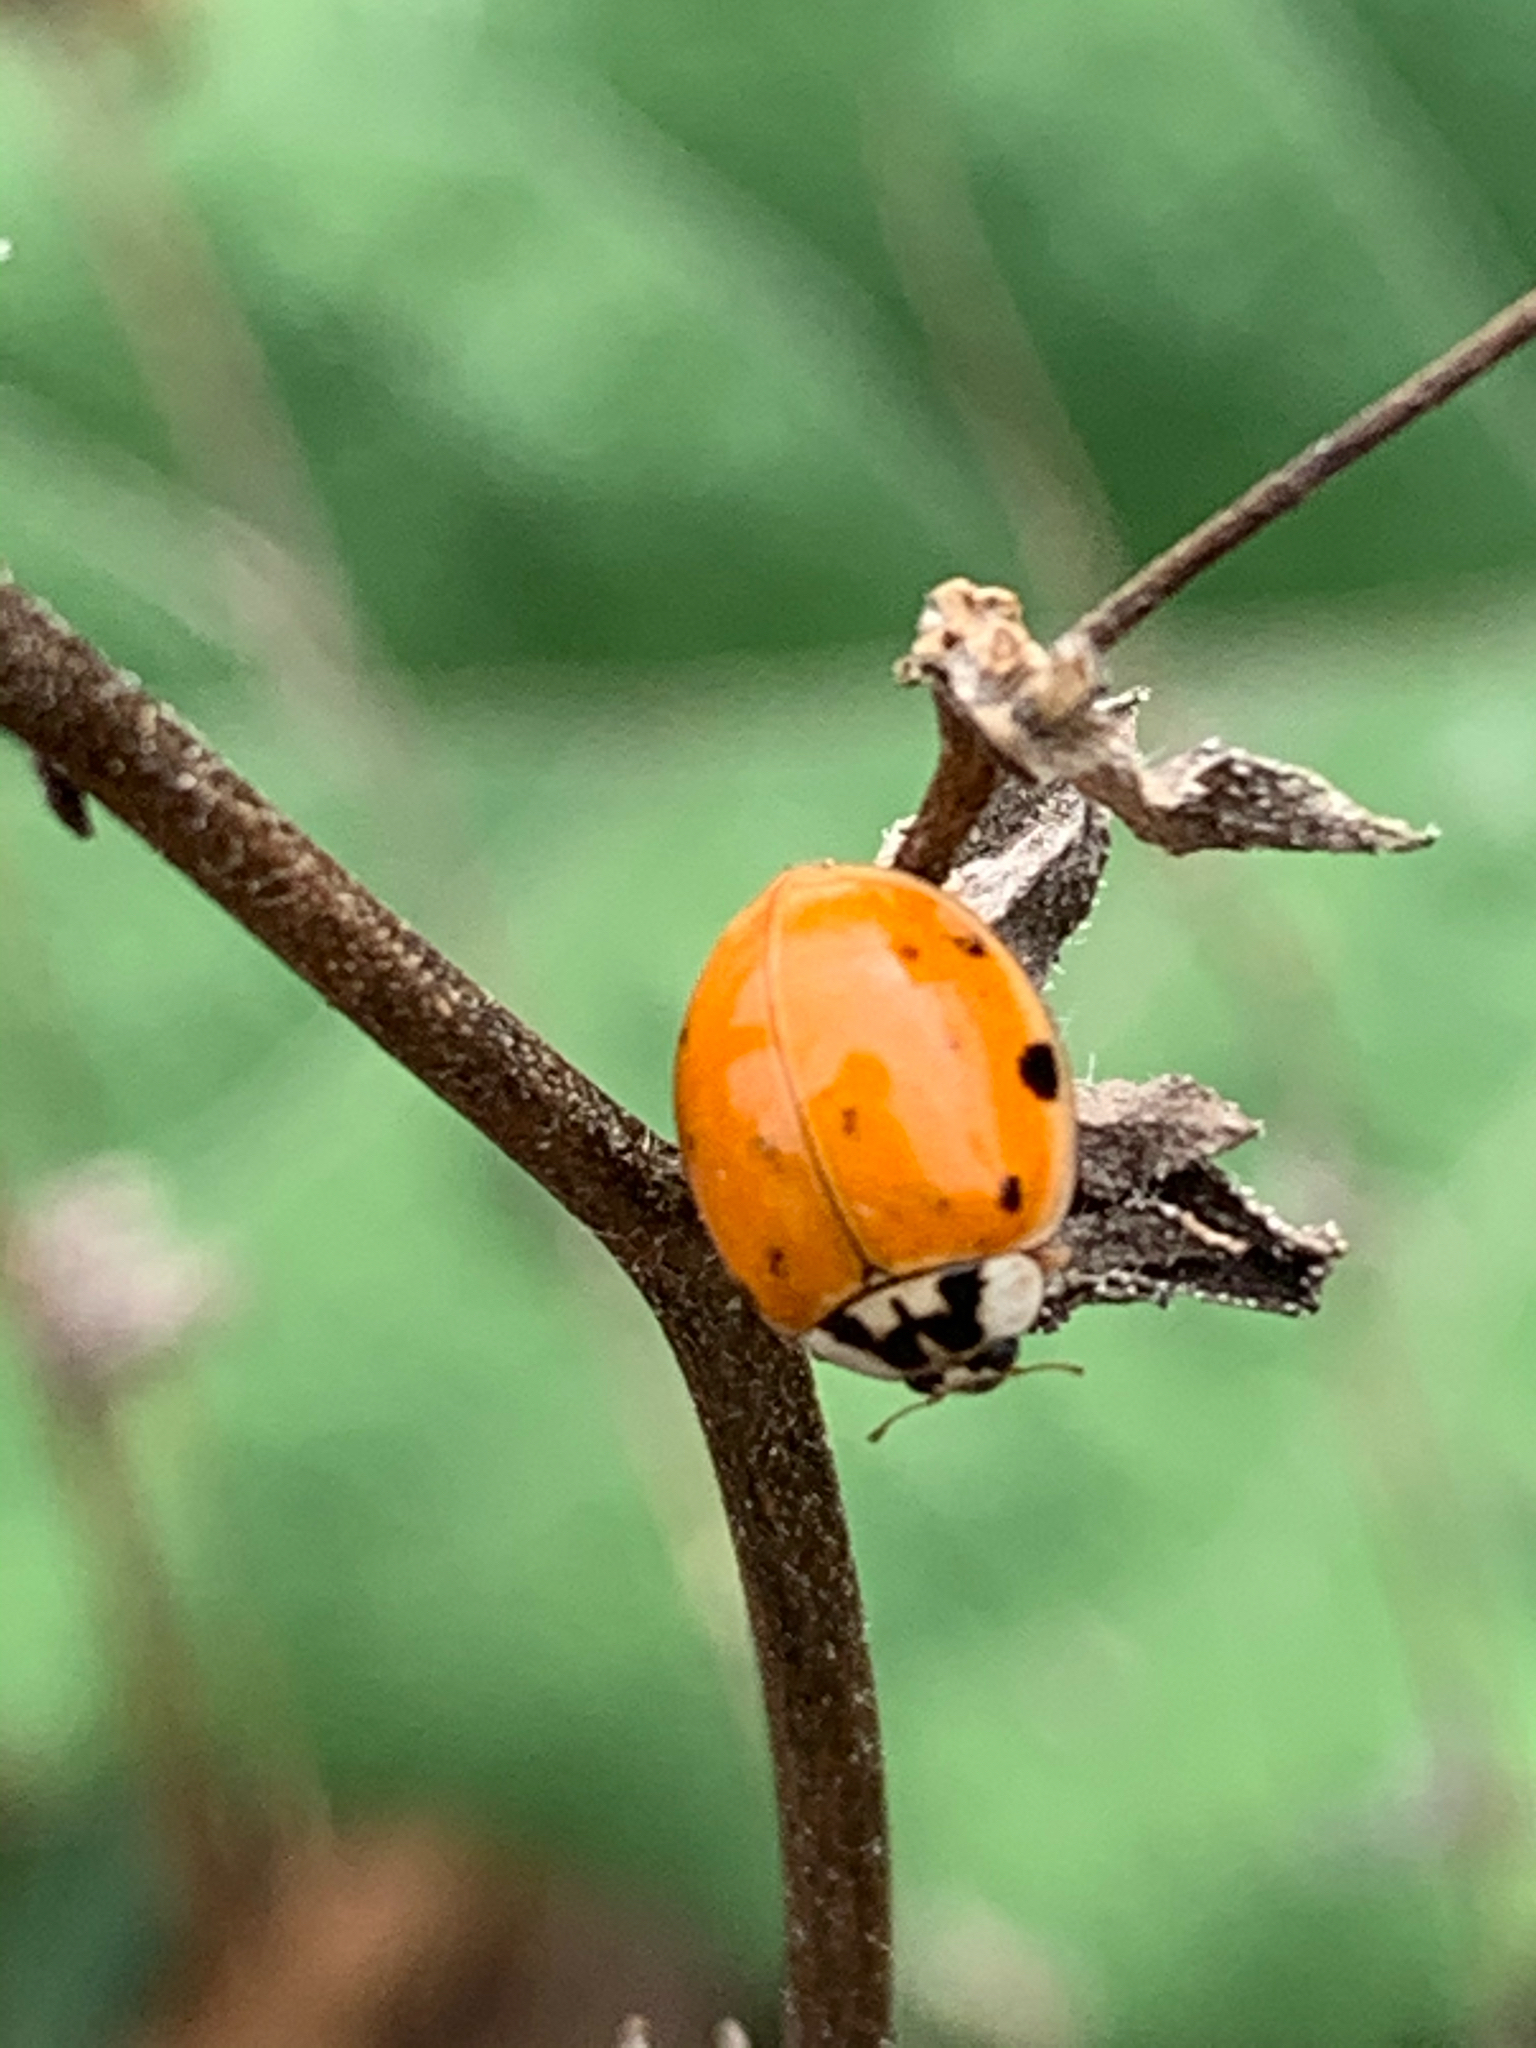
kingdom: Animalia
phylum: Arthropoda
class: Insecta
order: Coleoptera
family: Coccinellidae
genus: Harmonia
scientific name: Harmonia axyridis
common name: Harlequin ladybird
